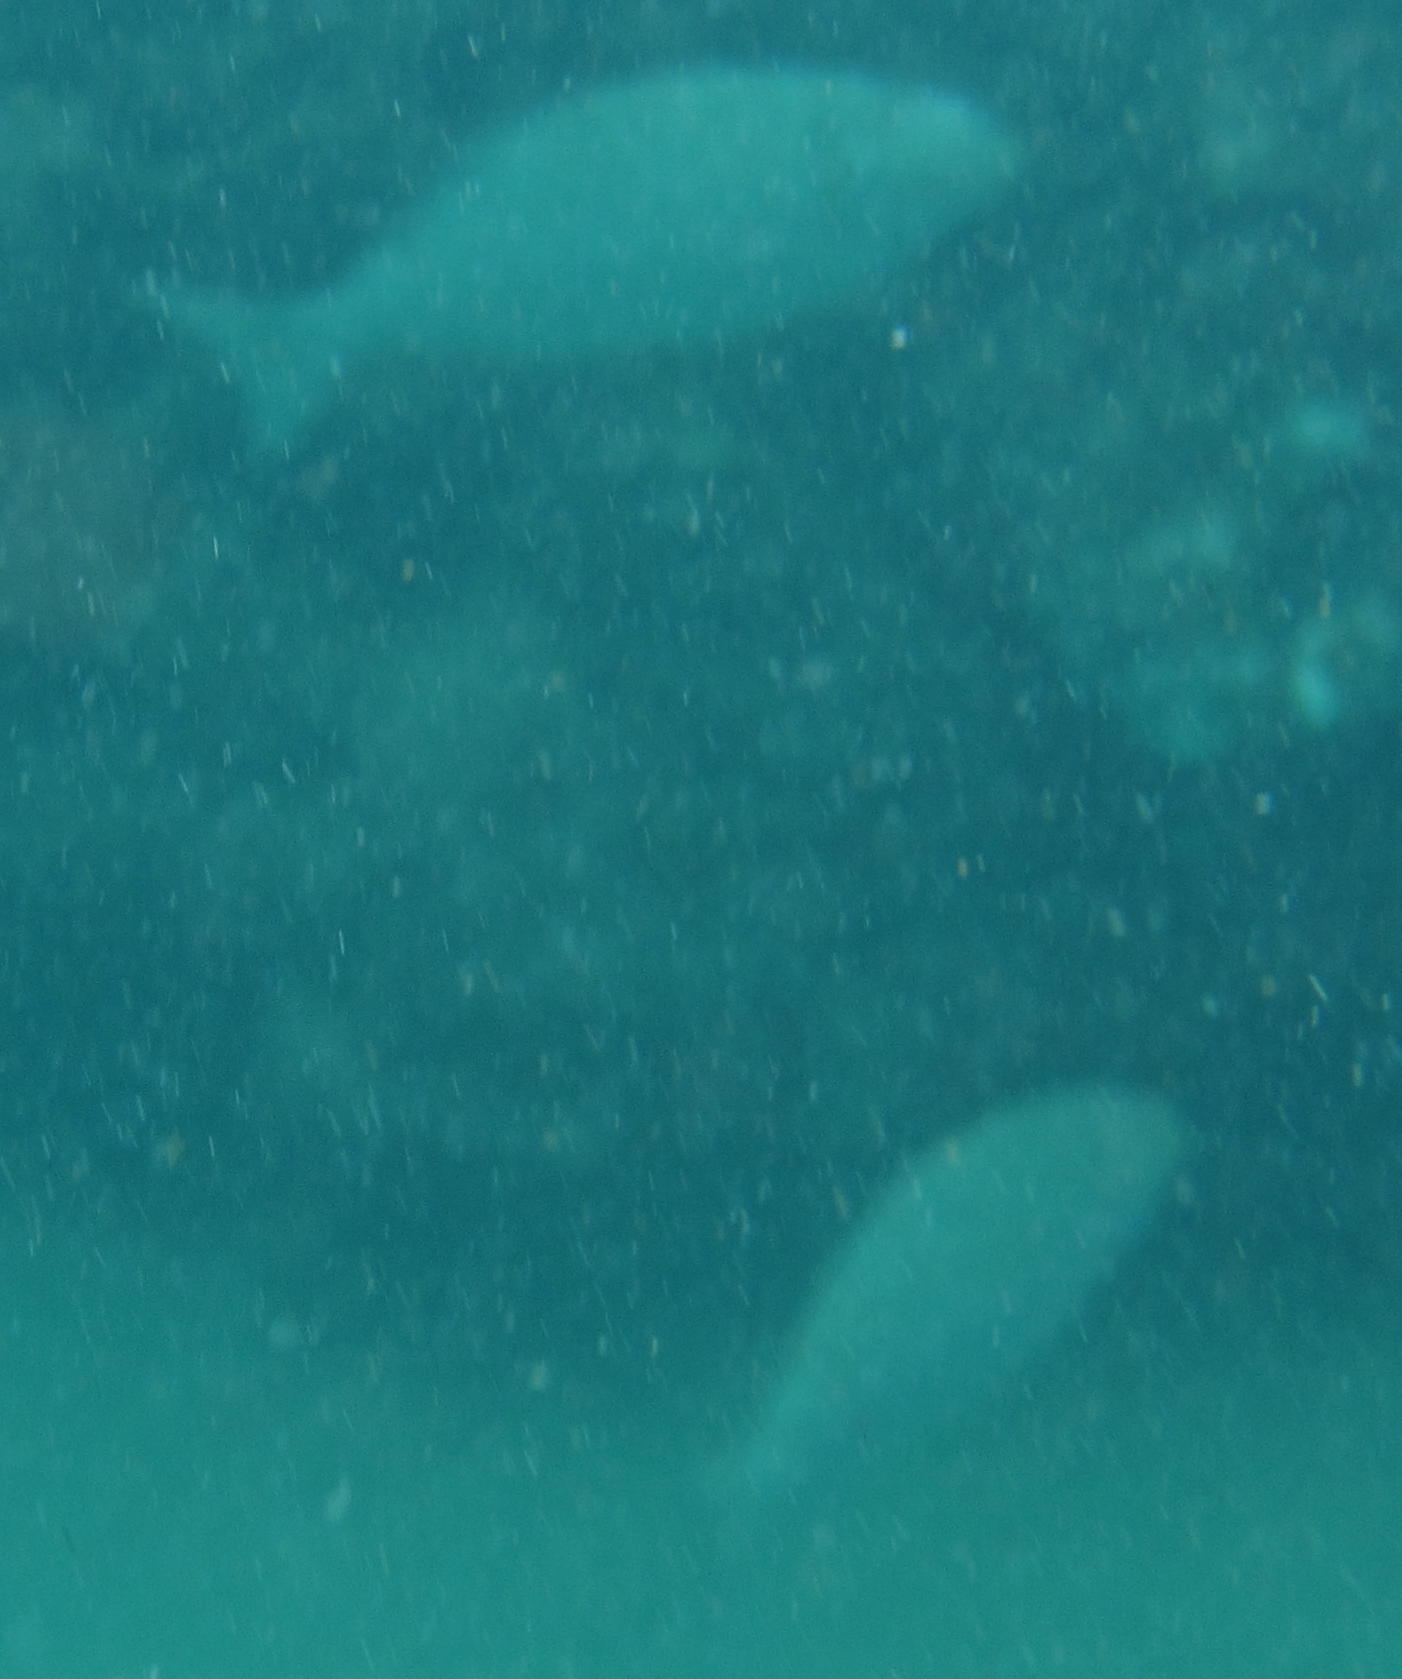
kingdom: Animalia
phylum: Chordata
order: Perciformes
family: Kyphosidae
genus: Kyphosus
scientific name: Kyphosus vaigiensis
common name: Brassy chub
